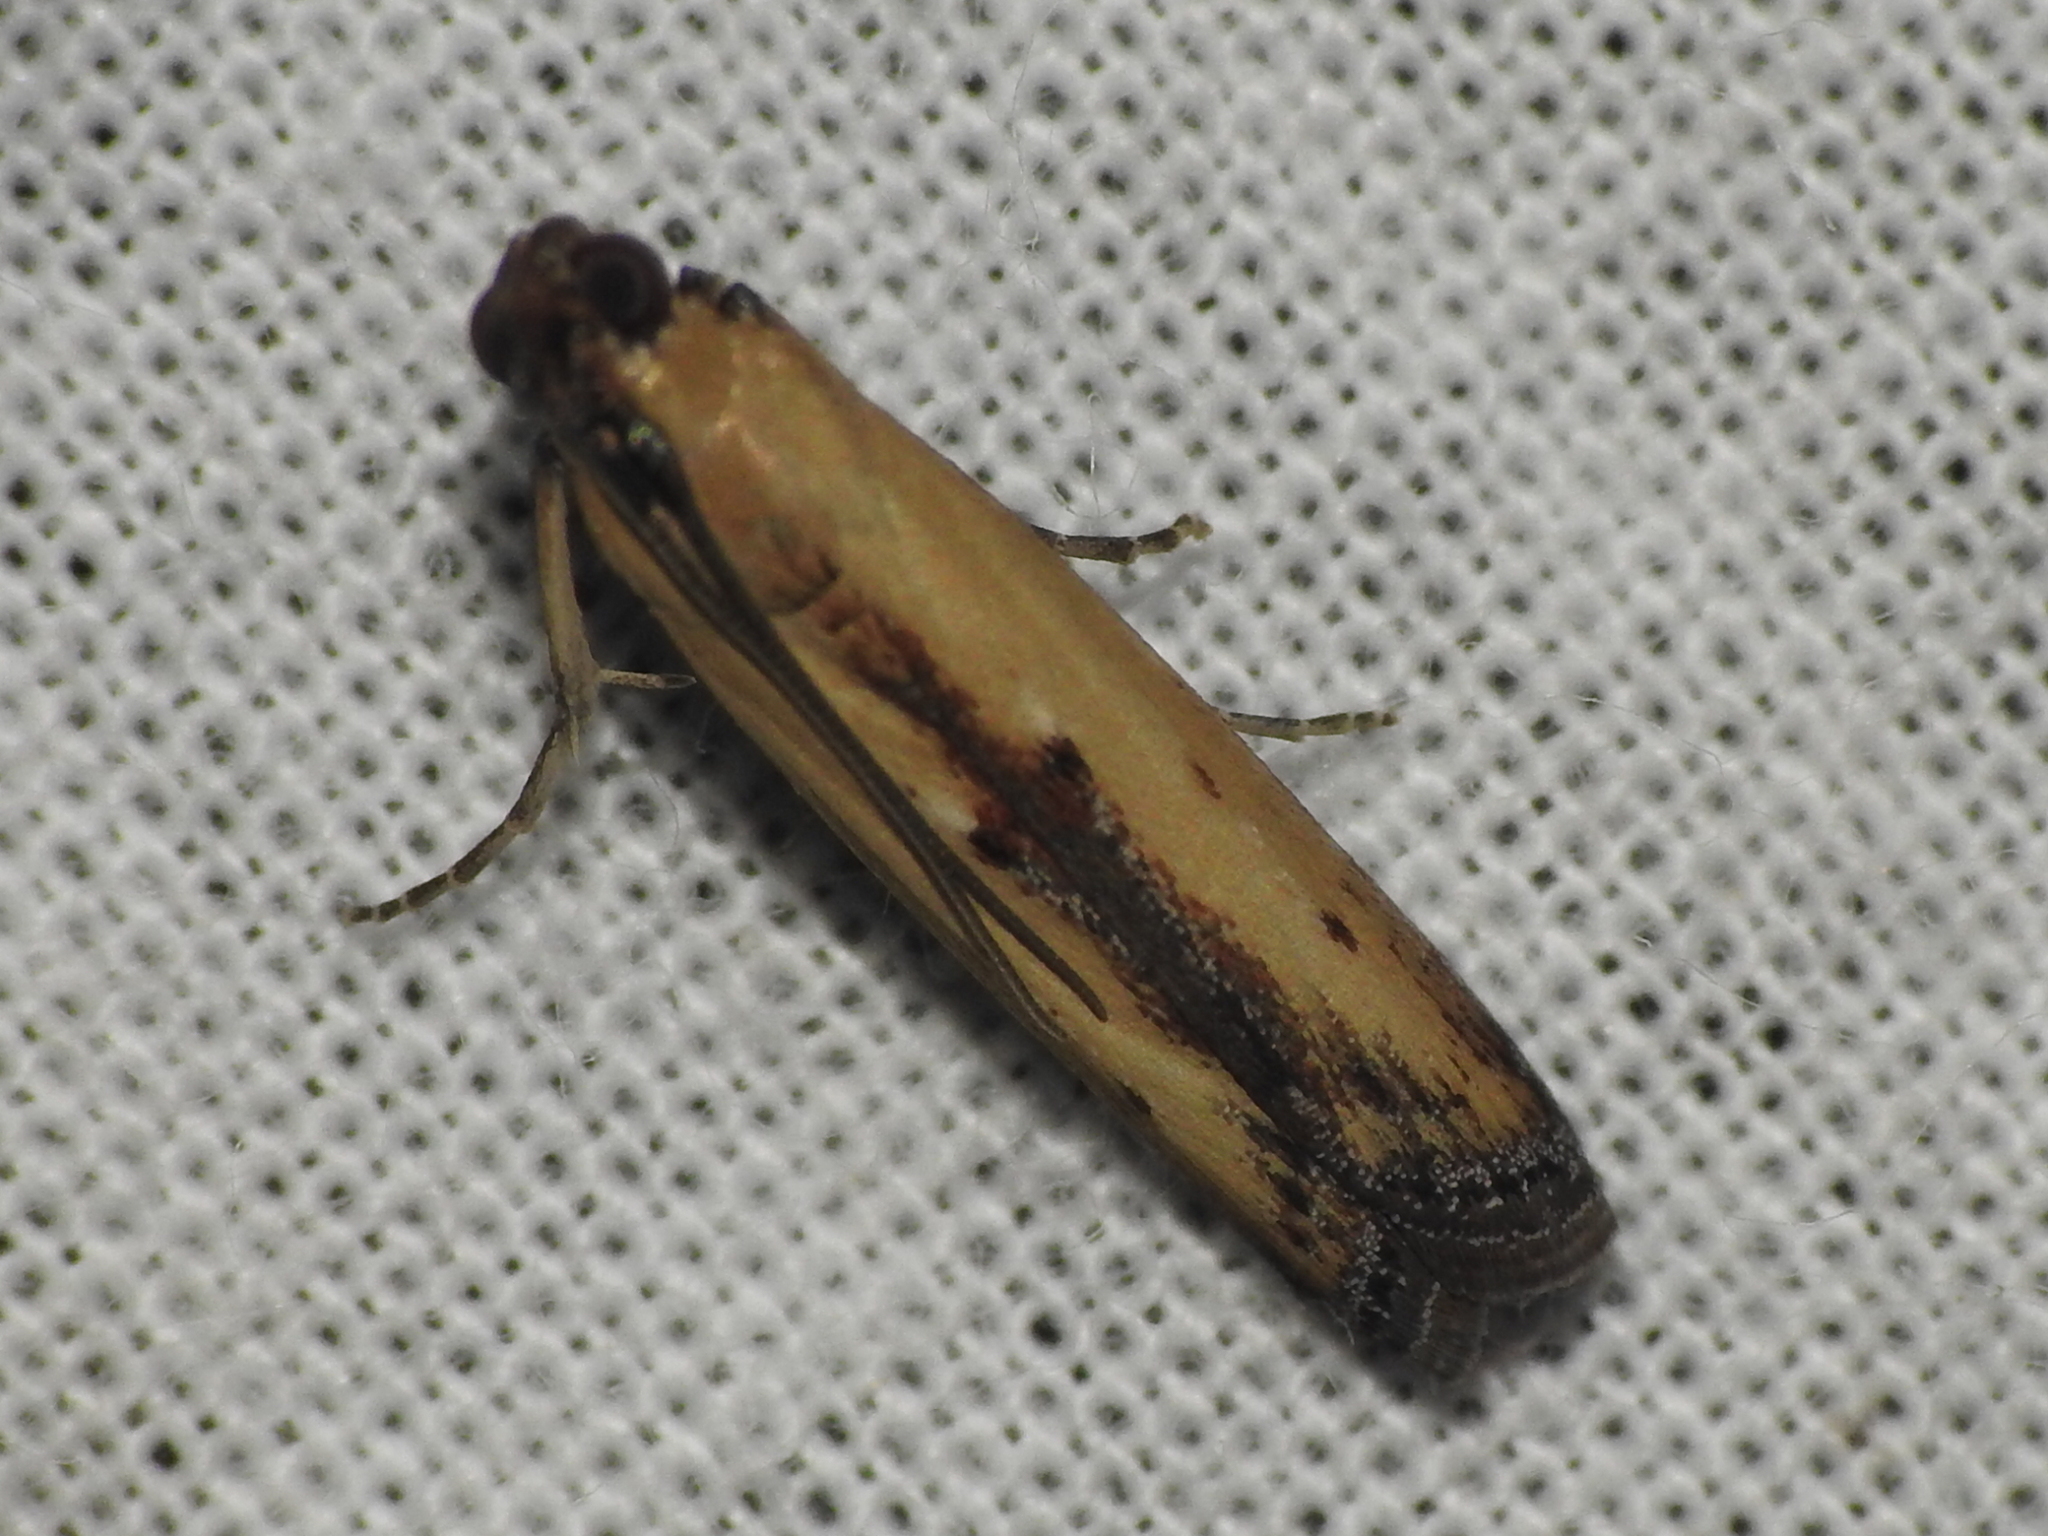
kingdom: Animalia
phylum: Arthropoda
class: Insecta
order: Lepidoptera
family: Pyralidae
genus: Elasmopalpus
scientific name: Elasmopalpus lignosella
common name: Lesser cornstalk borer
